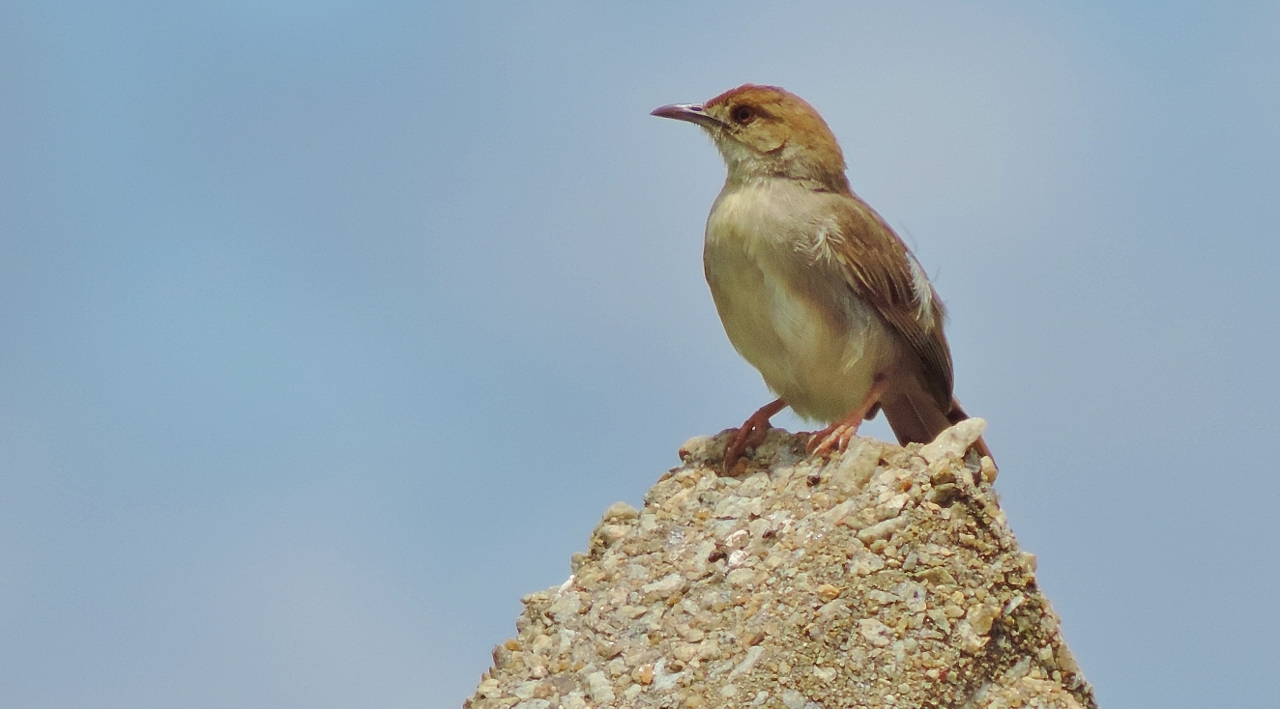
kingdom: Animalia
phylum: Chordata
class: Aves
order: Passeriformes
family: Cisticolidae
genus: Cisticola
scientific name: Cisticola chiniana
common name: Rattling cisticola
